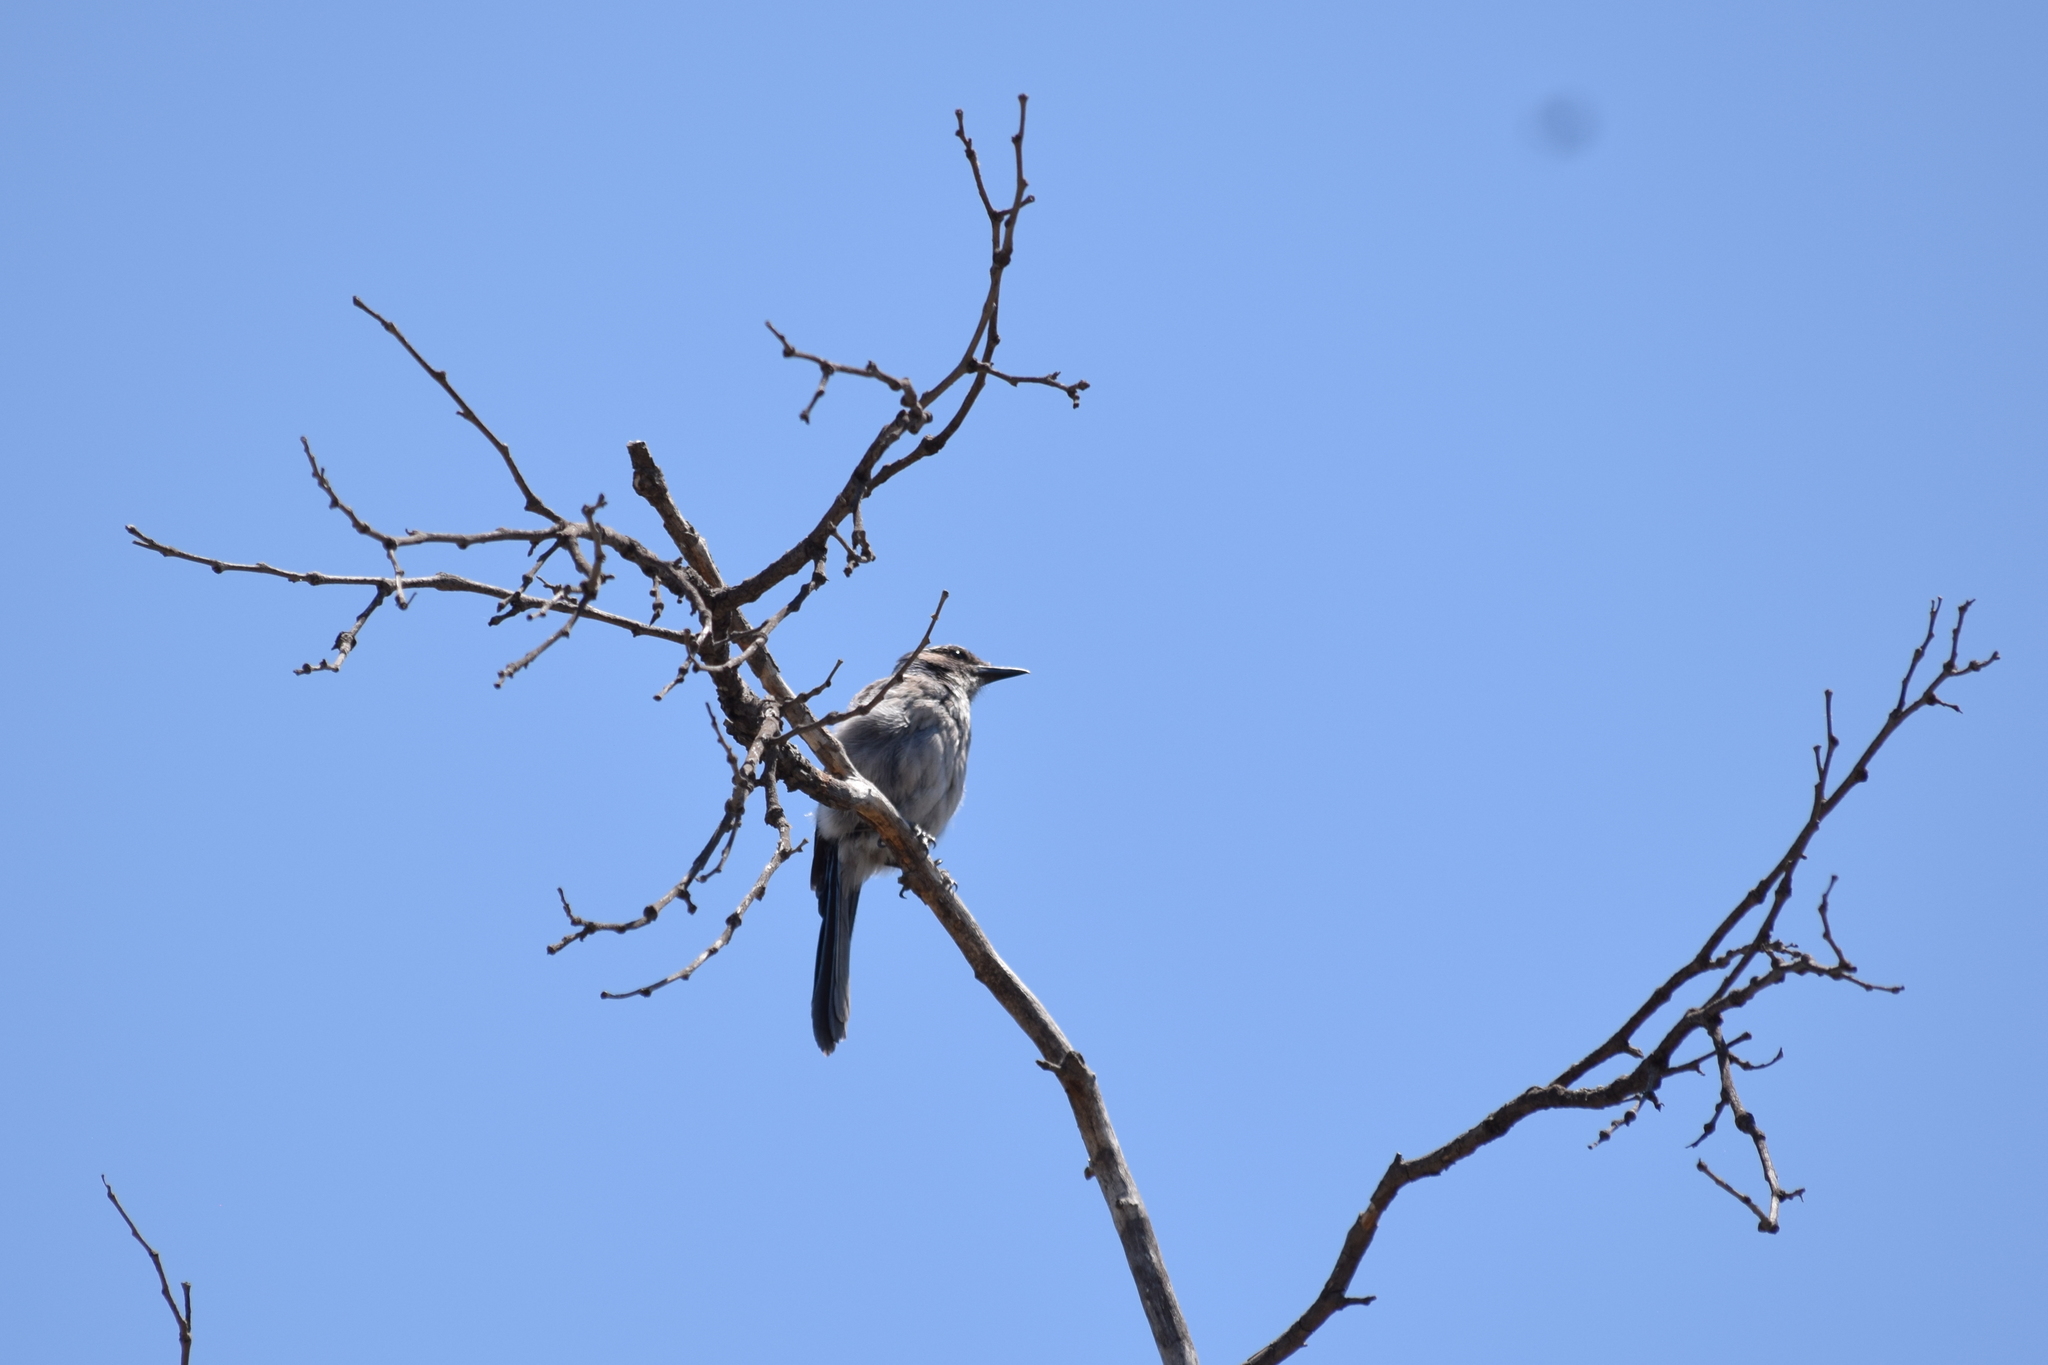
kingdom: Animalia
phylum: Chordata
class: Aves
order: Passeriformes
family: Corvidae
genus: Aphelocoma
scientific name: Aphelocoma californica
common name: California scrub-jay
